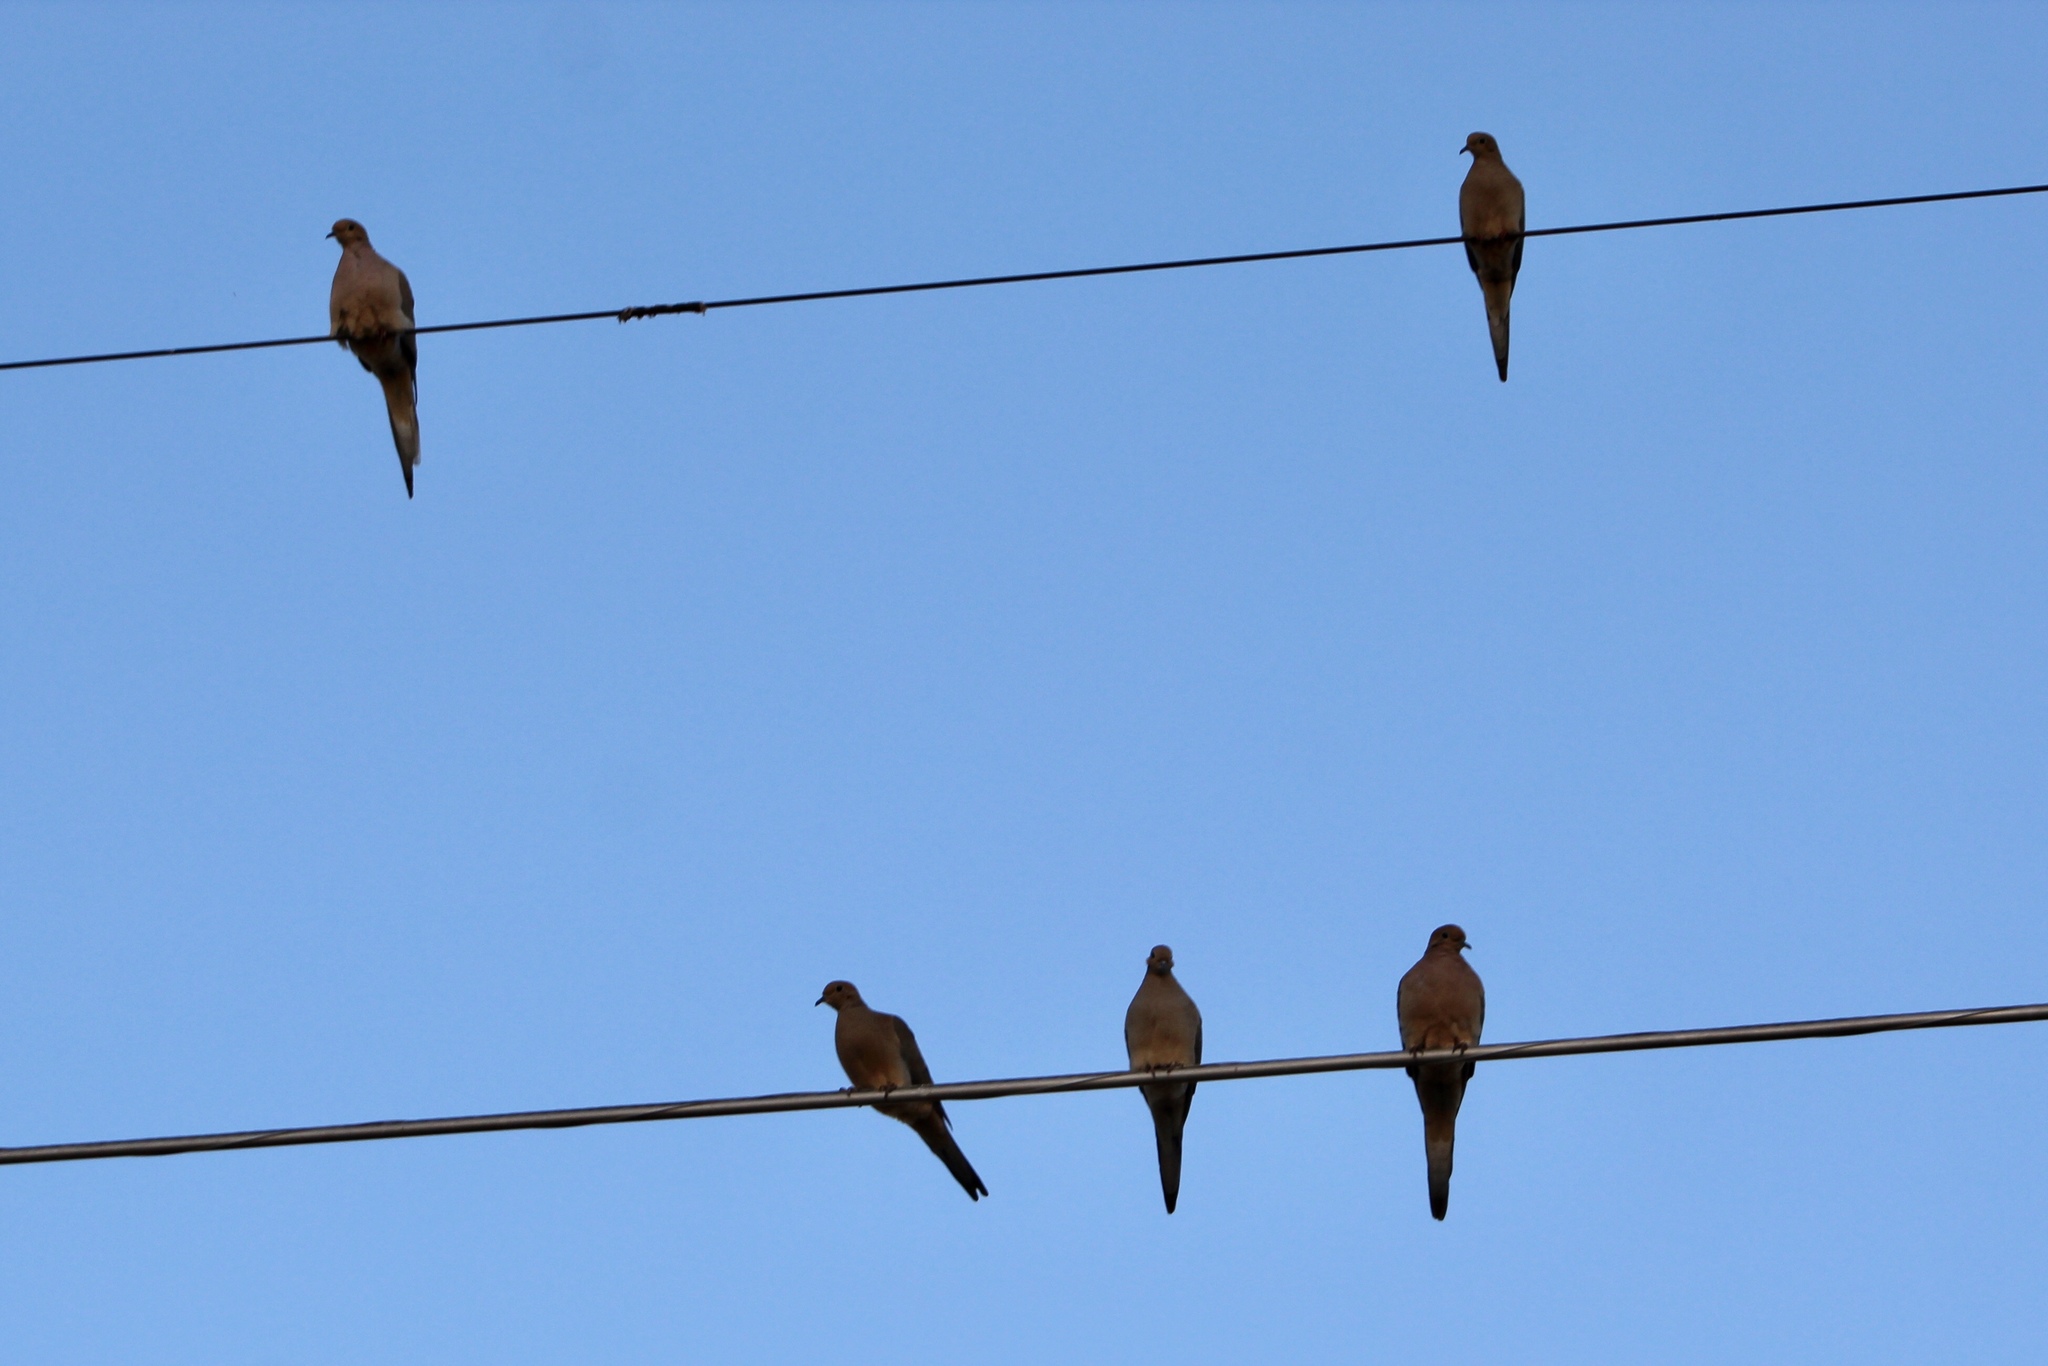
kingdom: Animalia
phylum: Chordata
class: Aves
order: Columbiformes
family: Columbidae
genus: Zenaida
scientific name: Zenaida macroura
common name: Mourning dove
